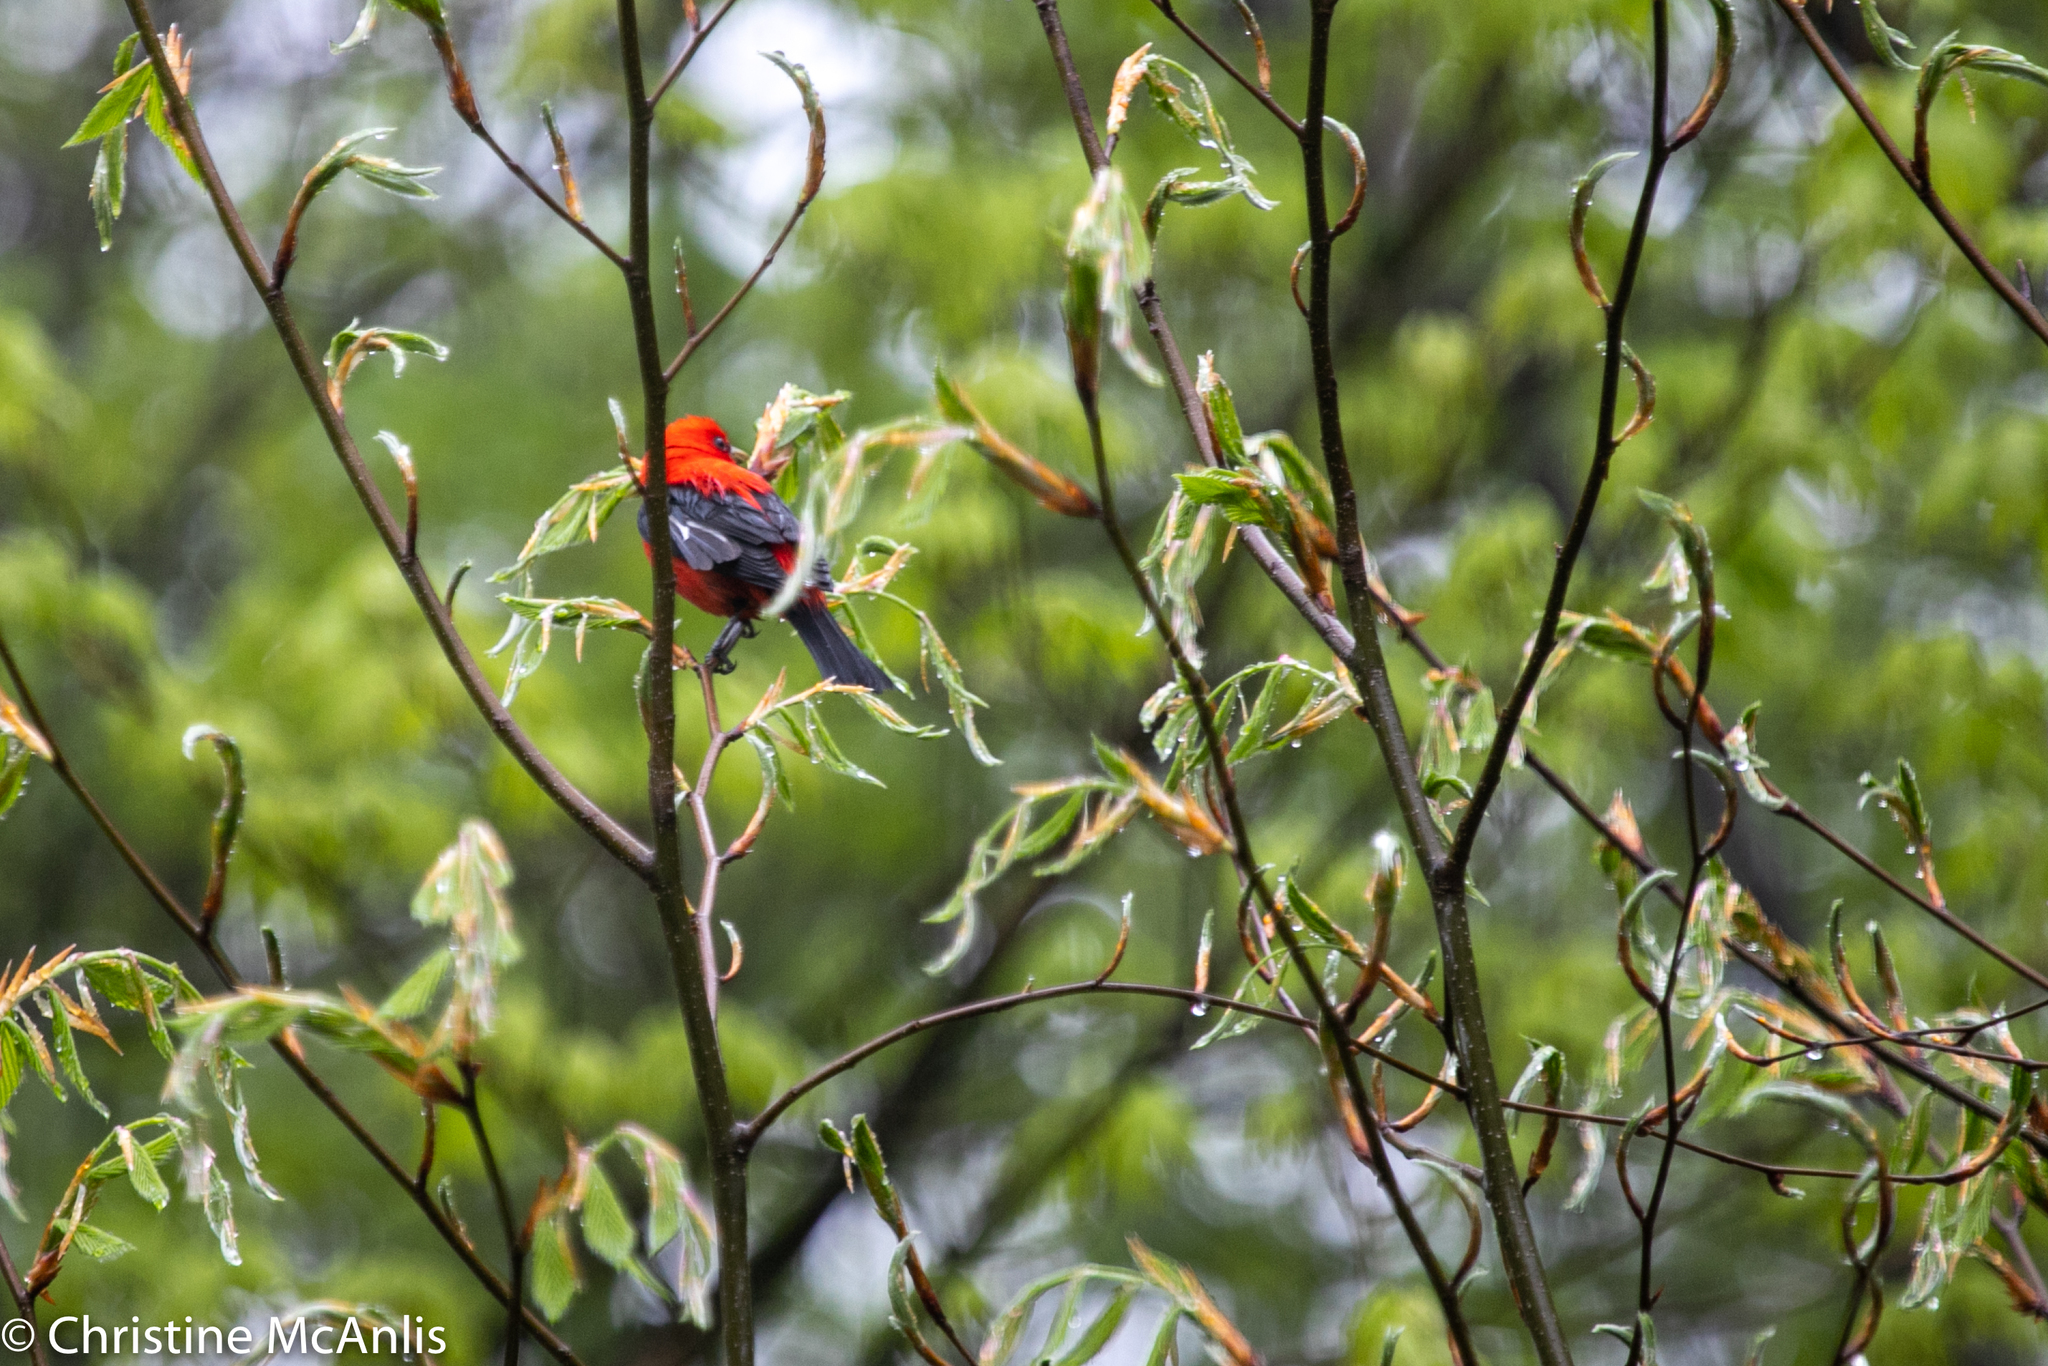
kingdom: Animalia
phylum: Chordata
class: Aves
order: Passeriformes
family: Cardinalidae
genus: Piranga
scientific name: Piranga olivacea
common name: Scarlet tanager
